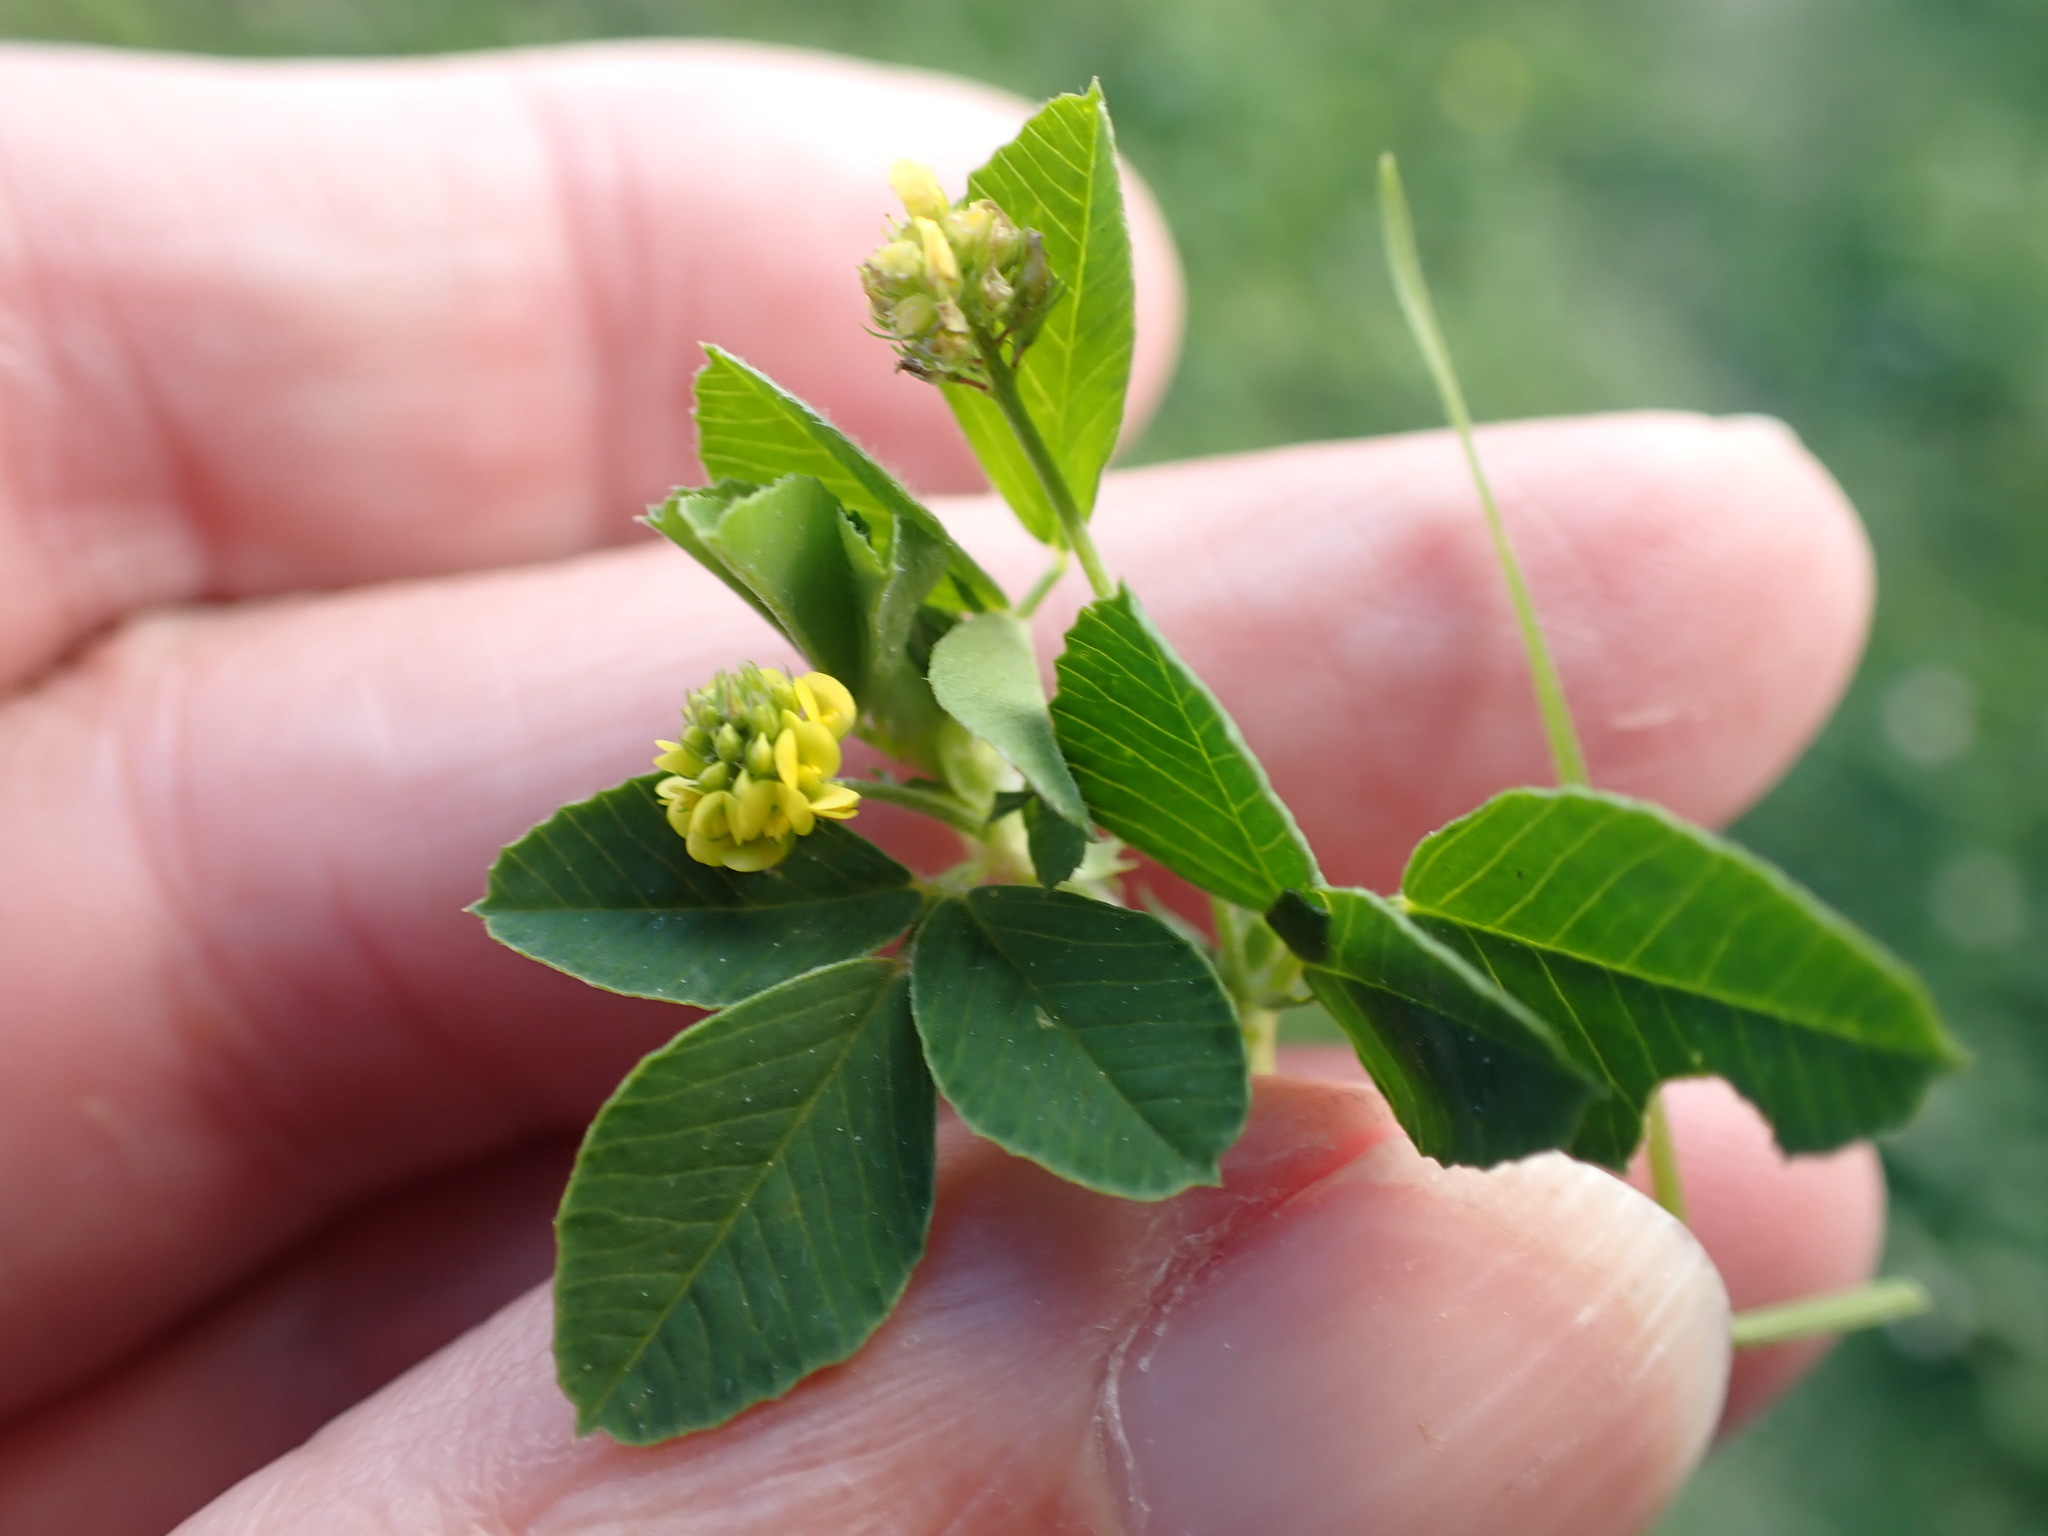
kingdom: Plantae
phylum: Tracheophyta
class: Magnoliopsida
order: Fabales
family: Fabaceae
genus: Medicago
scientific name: Medicago lupulina
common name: Black medick
